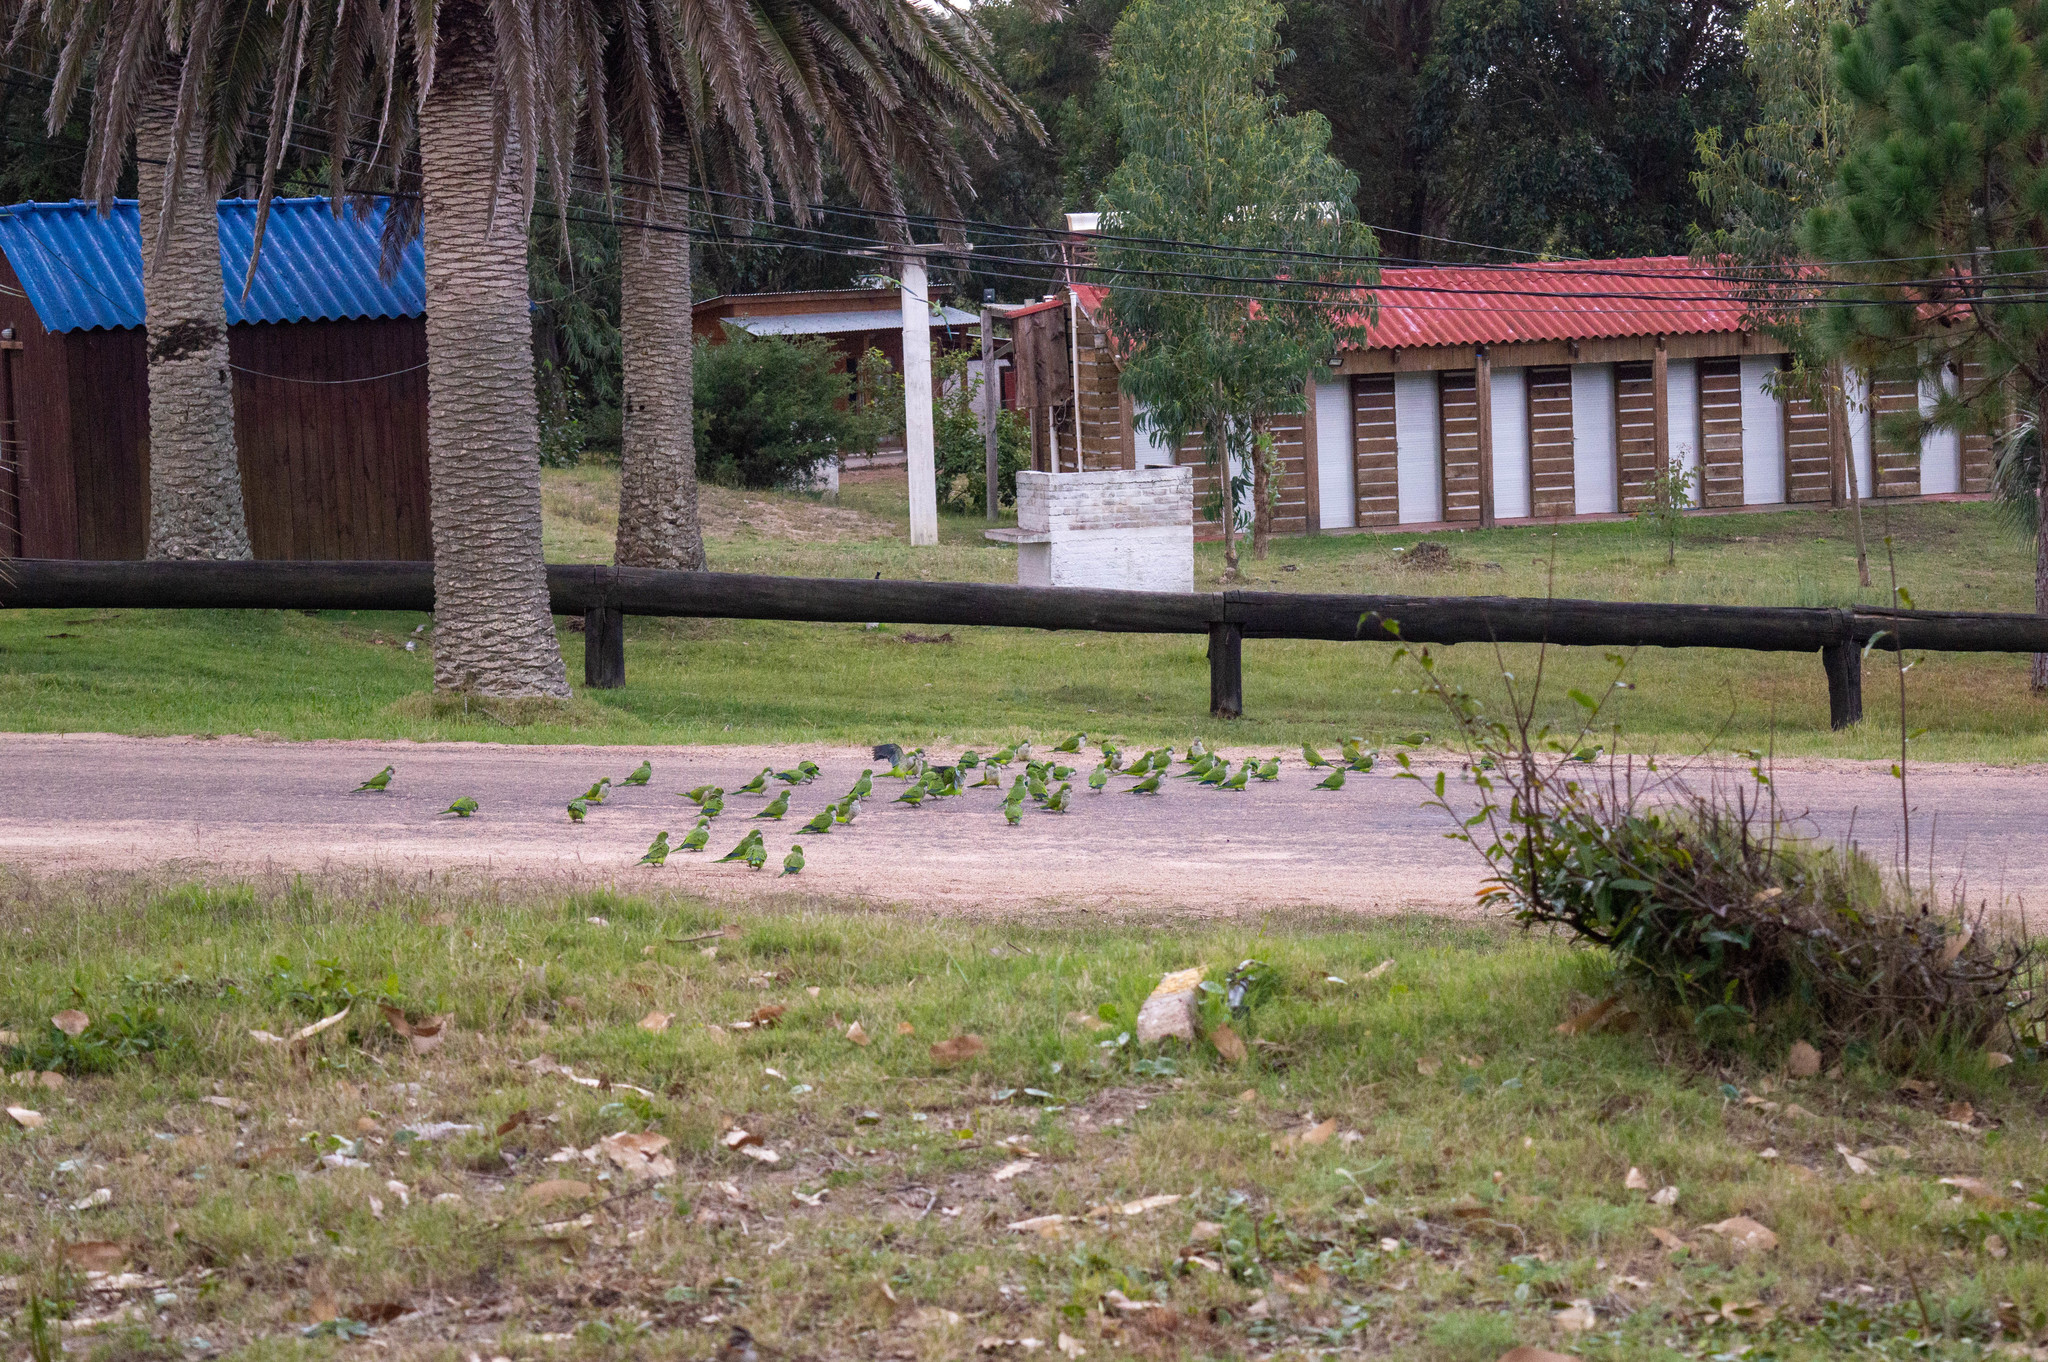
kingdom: Animalia
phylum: Chordata
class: Aves
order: Psittaciformes
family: Psittacidae
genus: Myiopsitta
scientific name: Myiopsitta monachus
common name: Monk parakeet
